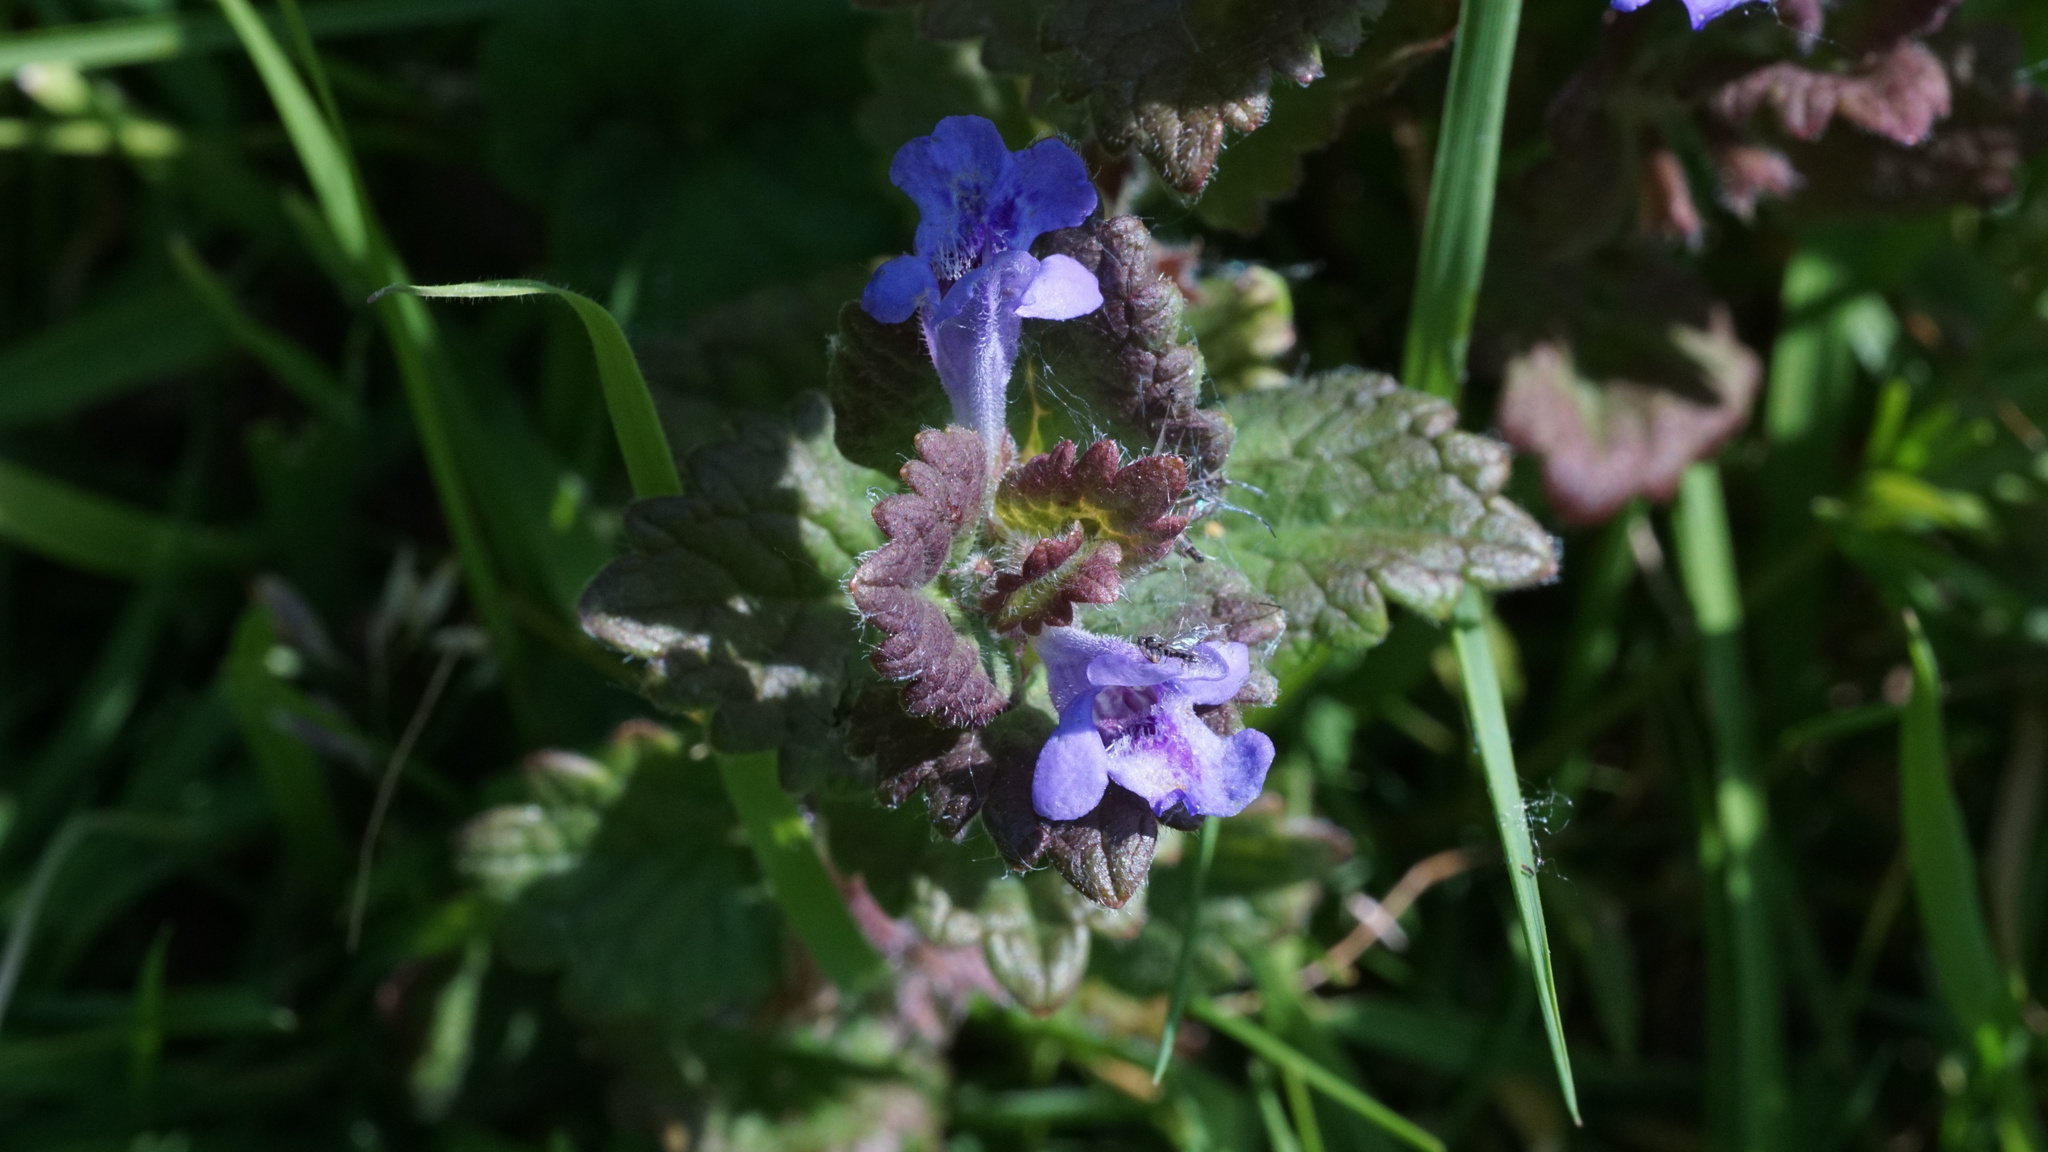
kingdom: Plantae
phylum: Tracheophyta
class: Magnoliopsida
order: Lamiales
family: Lamiaceae
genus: Glechoma
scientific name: Glechoma hederacea
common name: Ground ivy
